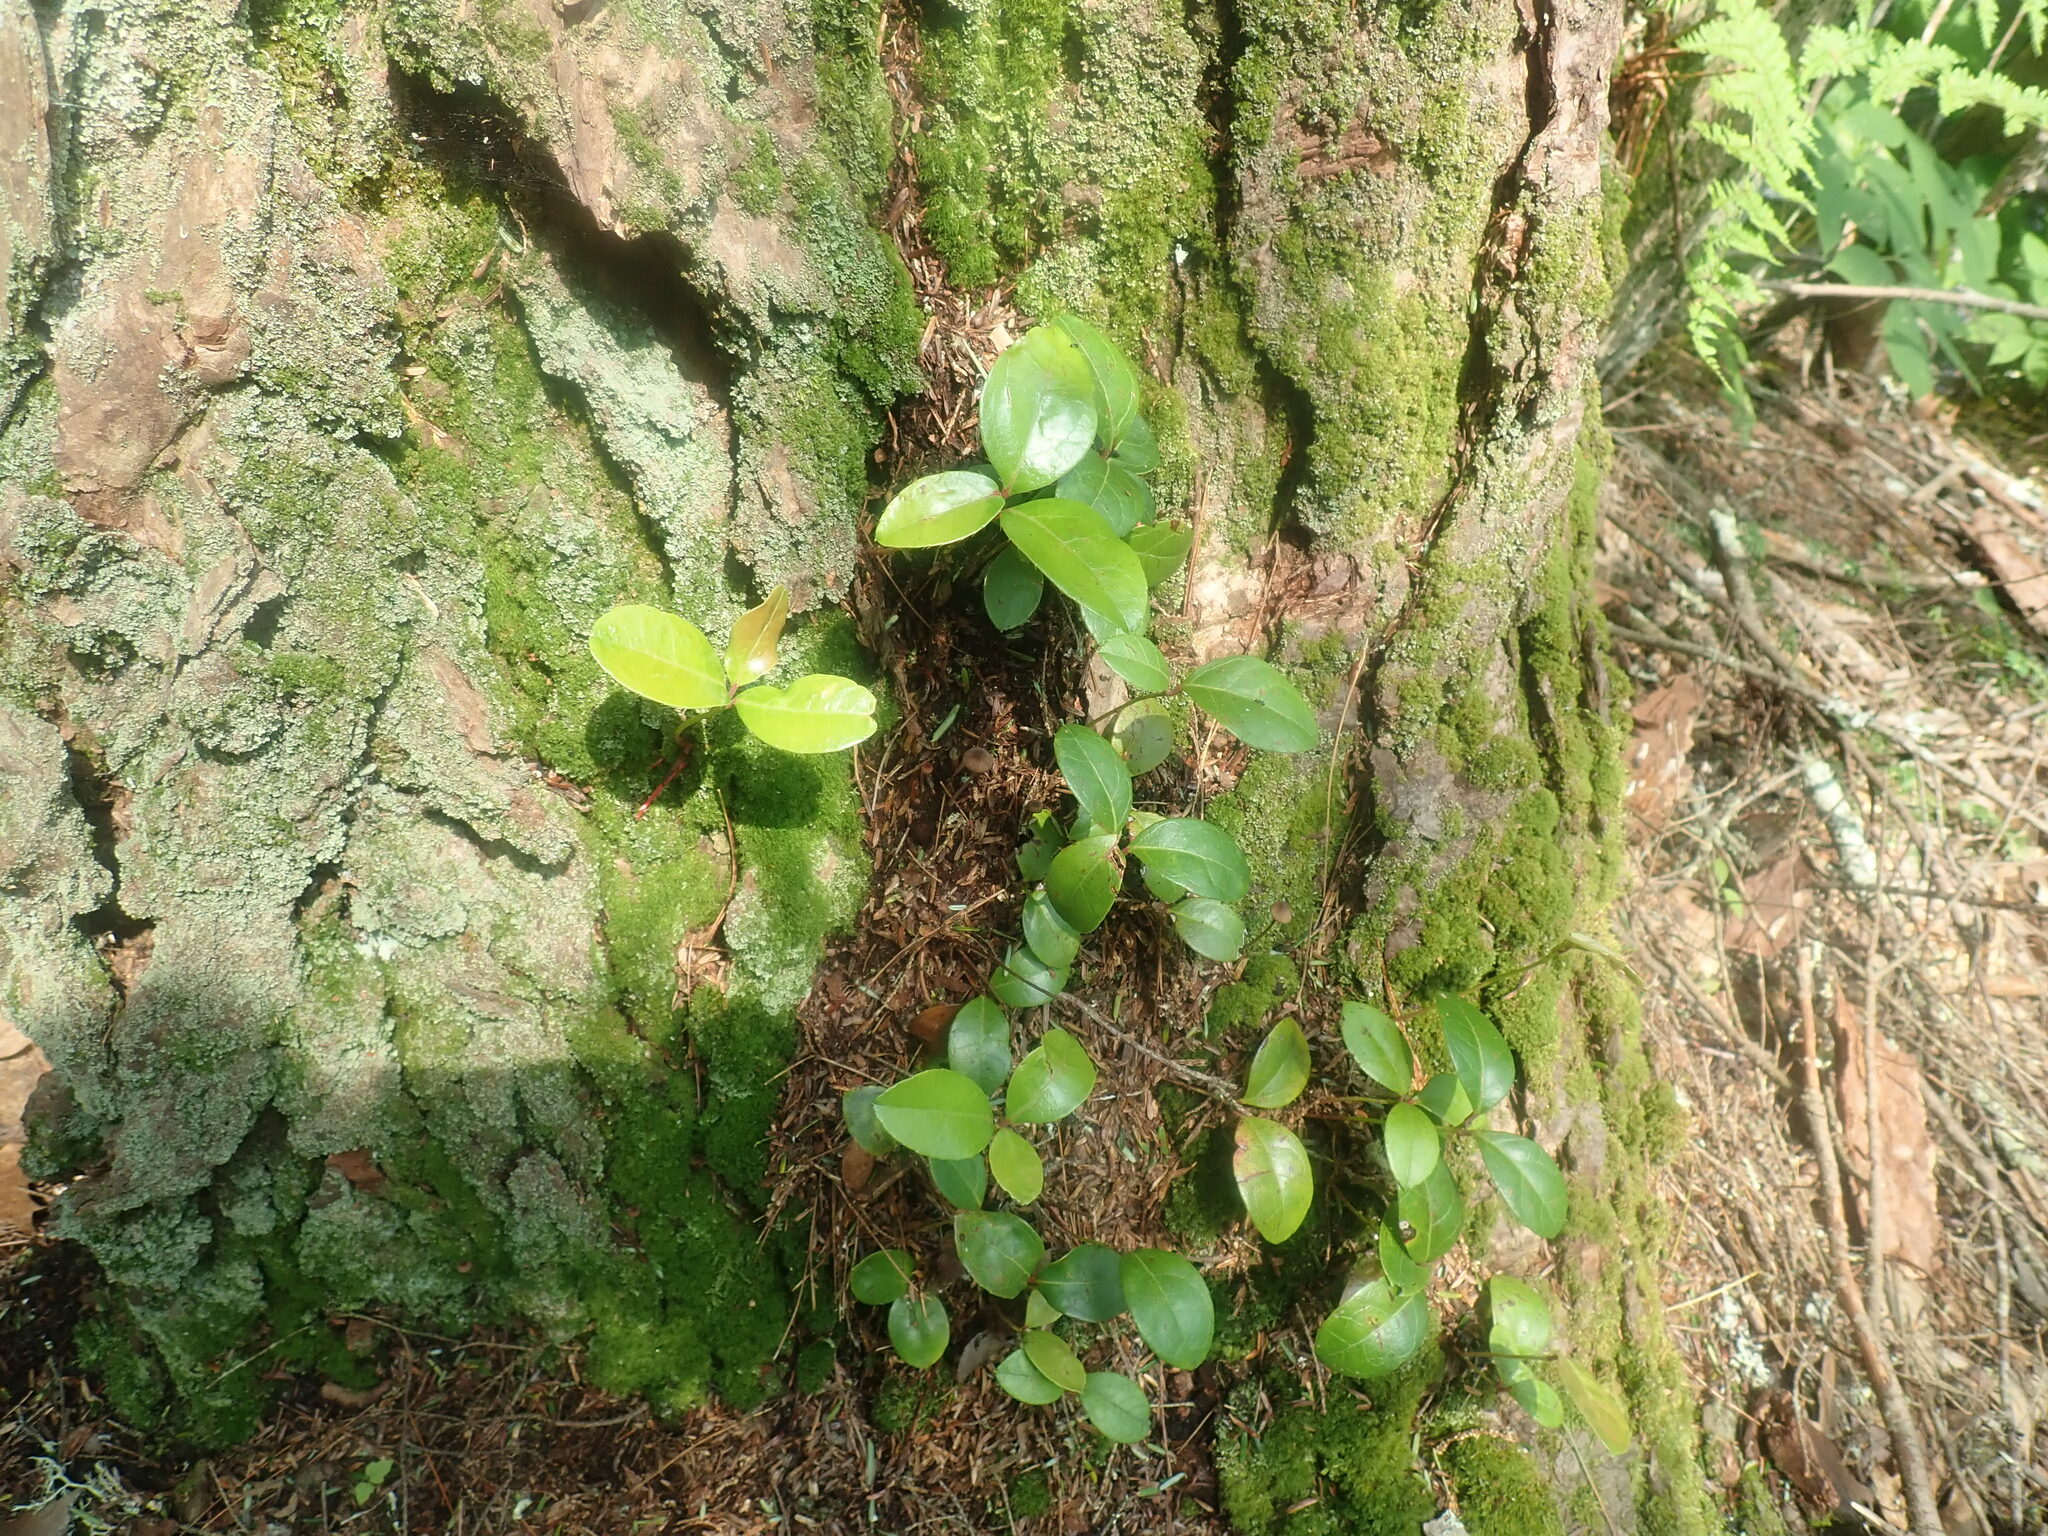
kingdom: Plantae
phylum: Tracheophyta
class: Magnoliopsida
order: Ericales
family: Ericaceae
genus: Gaultheria
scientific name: Gaultheria procumbens
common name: Checkerberry
